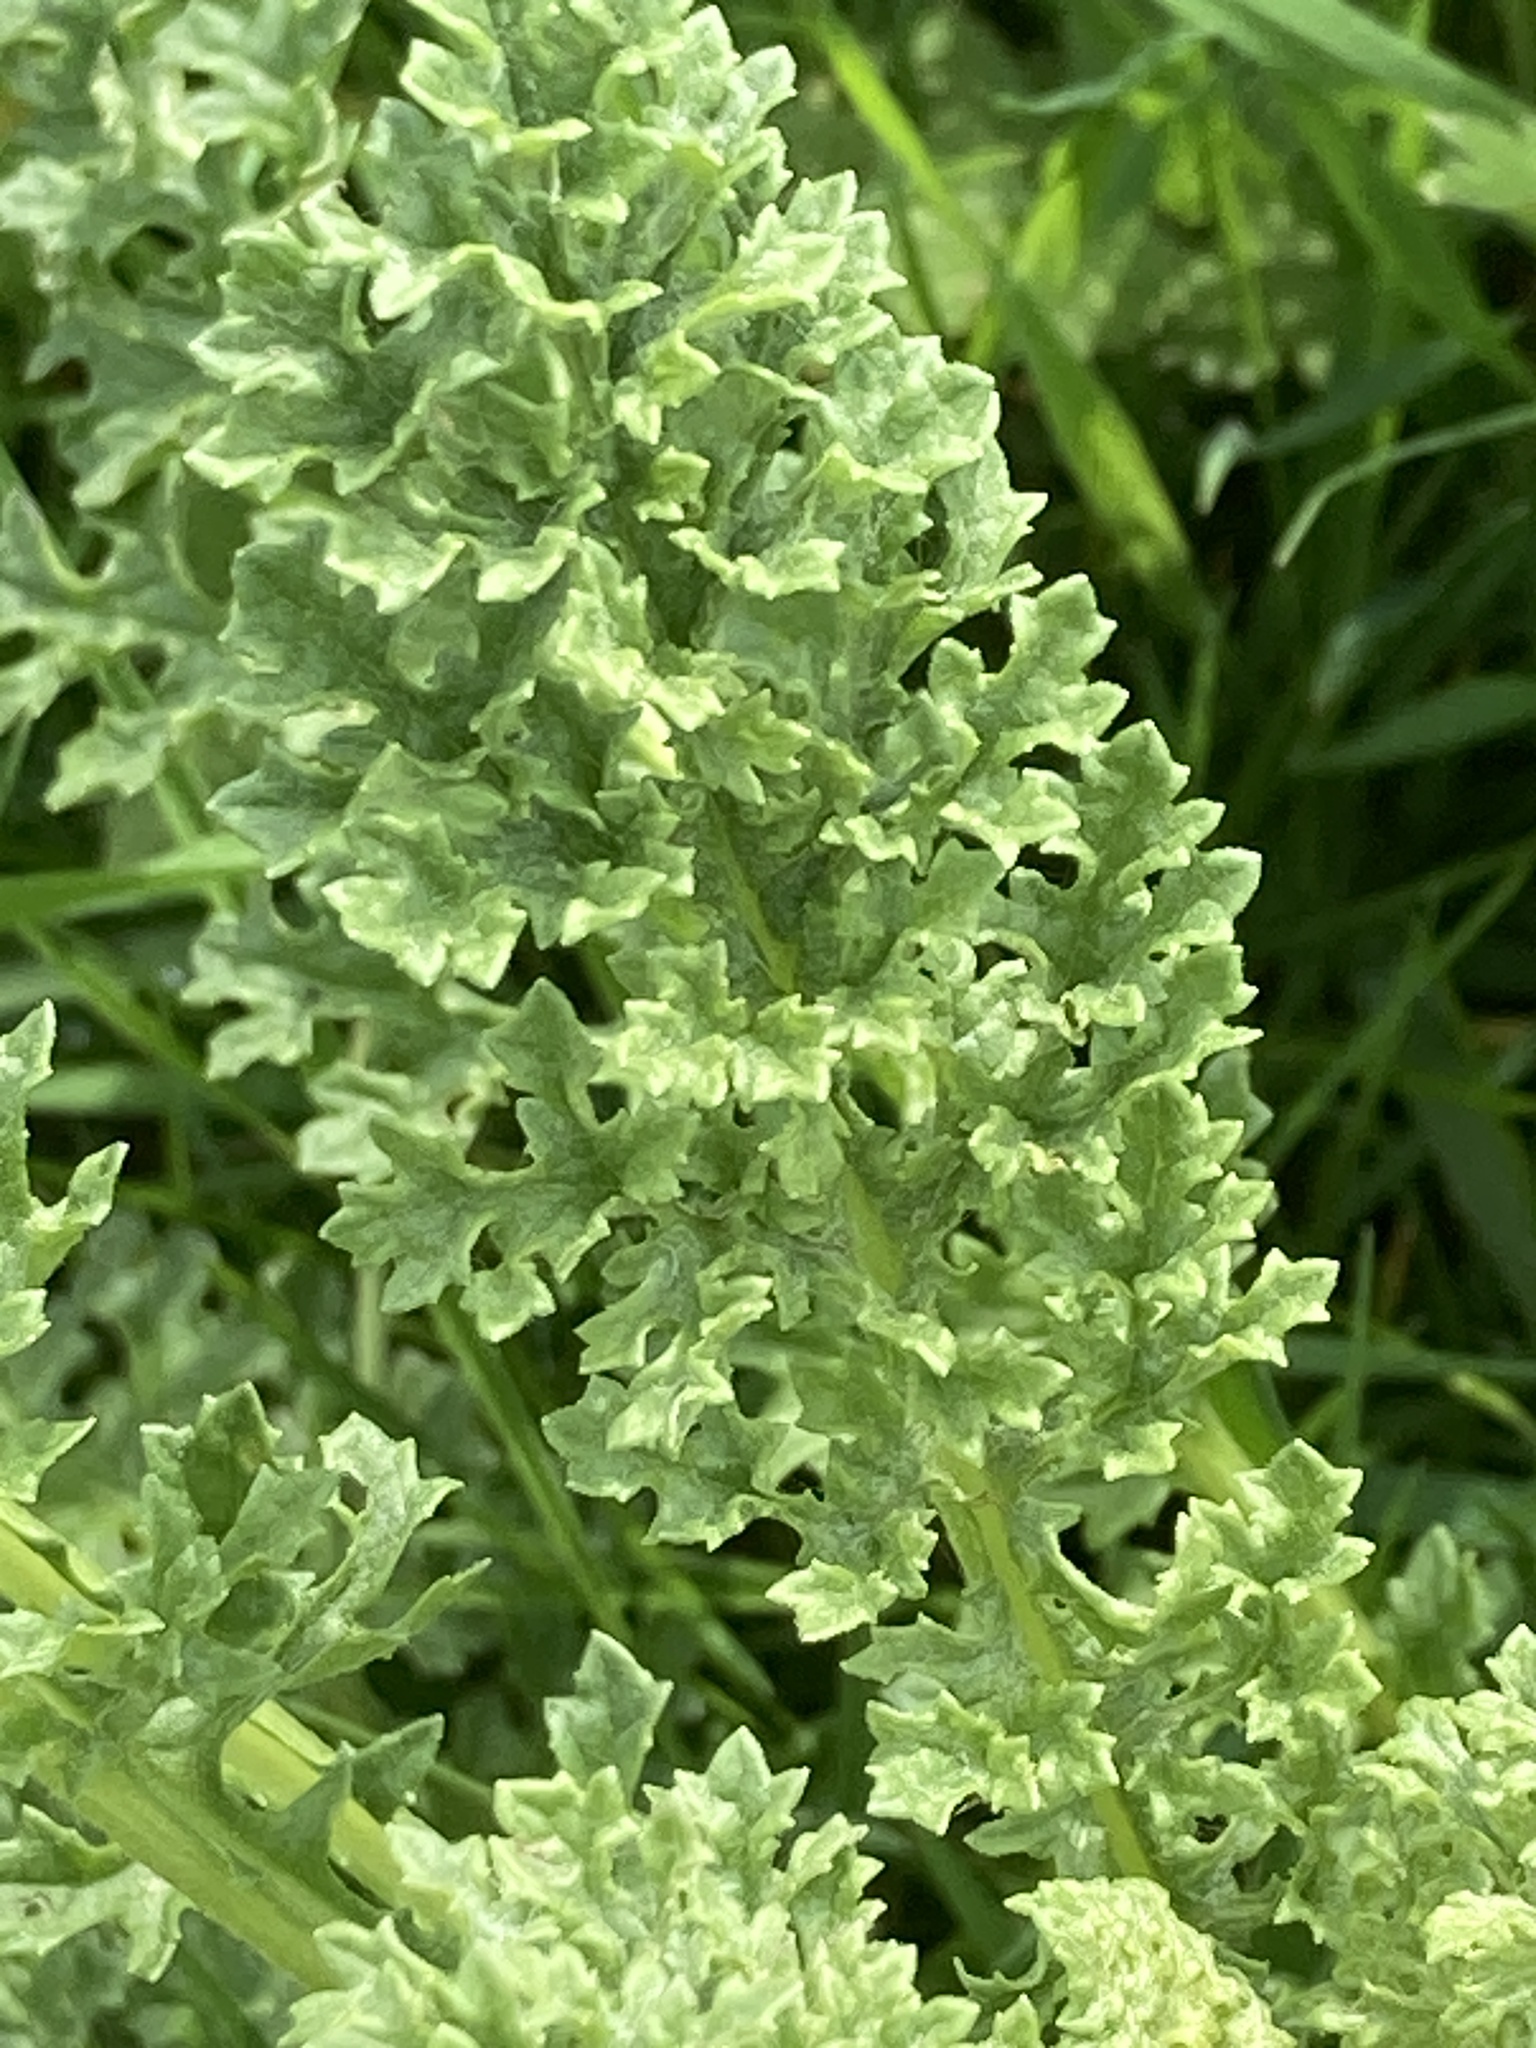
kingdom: Plantae
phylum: Tracheophyta
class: Magnoliopsida
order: Asterales
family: Asteraceae
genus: Jacobaea
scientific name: Jacobaea vulgaris
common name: Stinking willie
